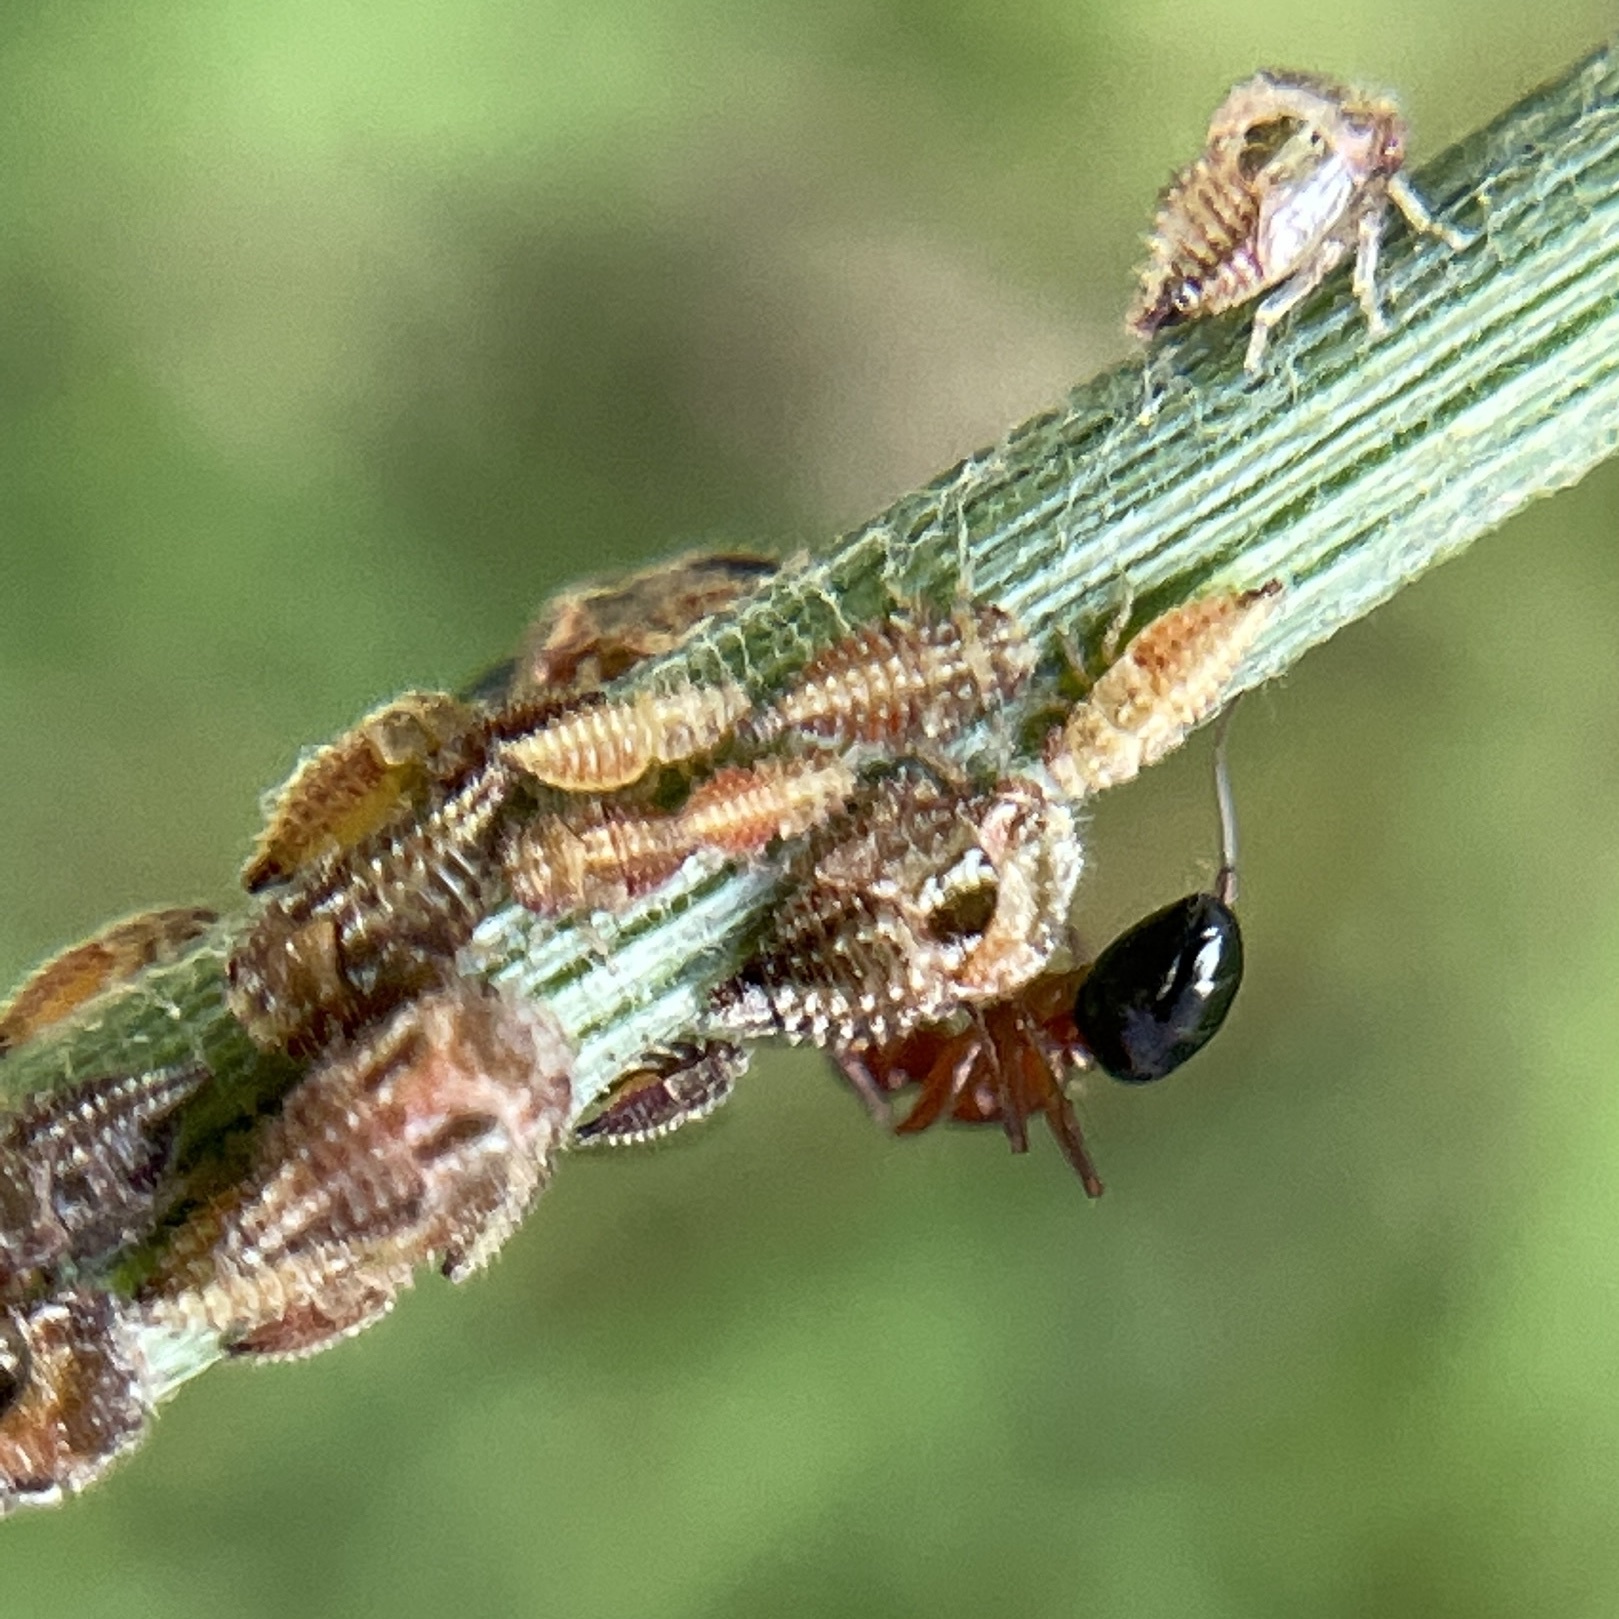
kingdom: Animalia
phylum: Arthropoda
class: Insecta
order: Hemiptera
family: Membracidae
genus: Vanduzea
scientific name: Vanduzea segmentata
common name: Membracid bug
